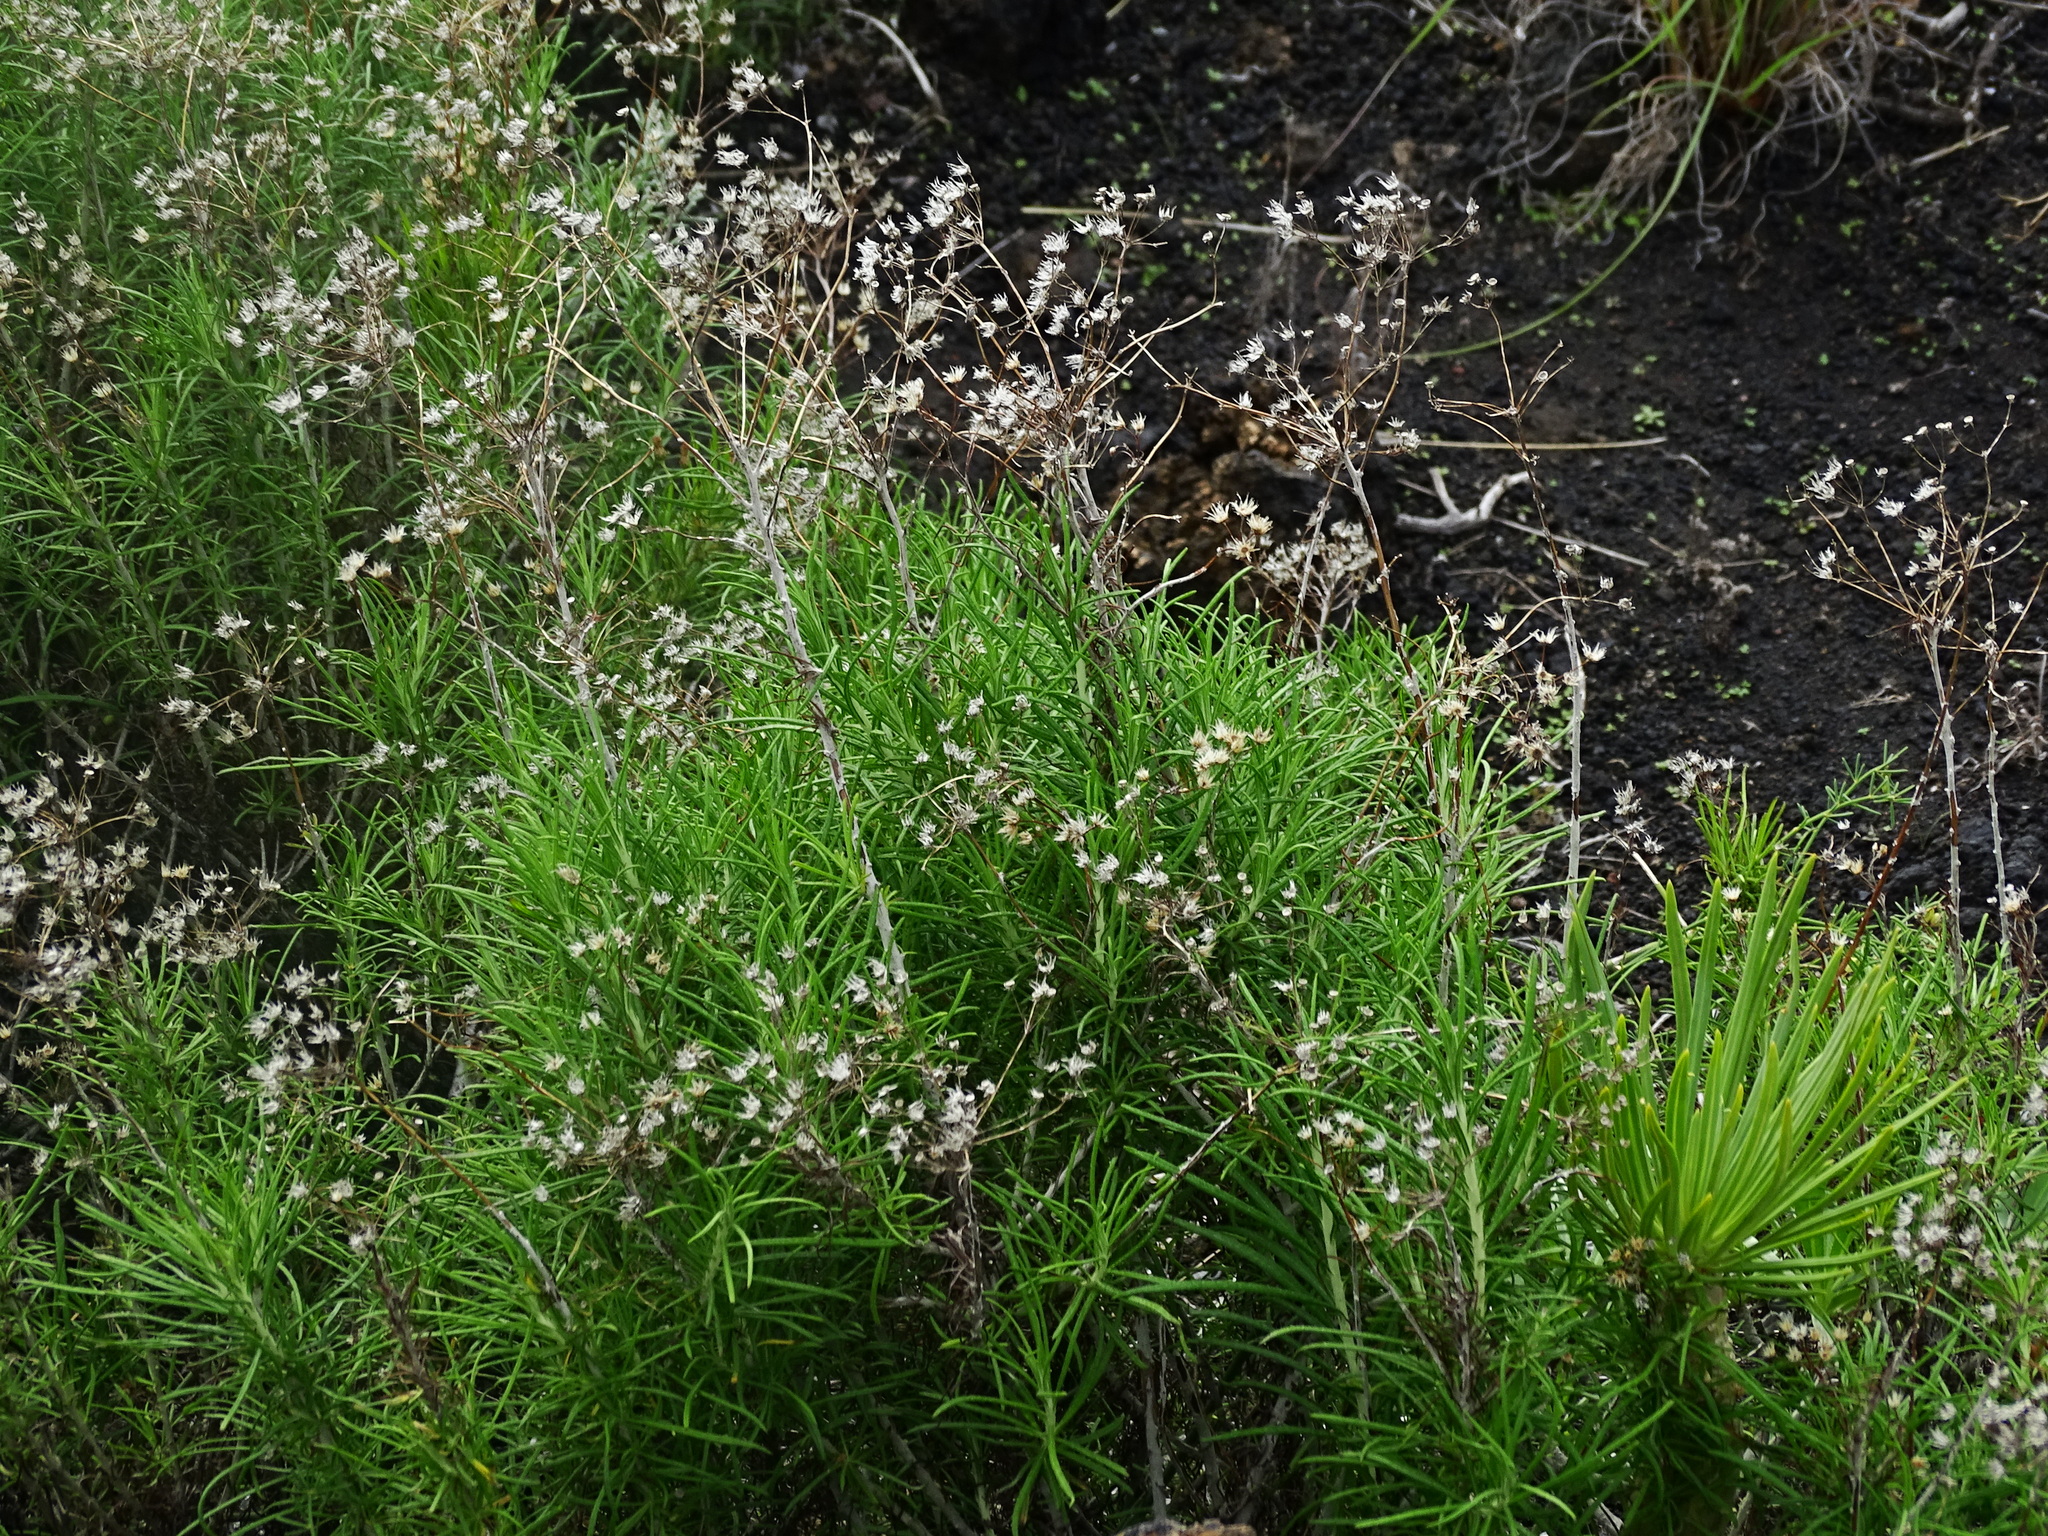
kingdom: Plantae
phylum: Tracheophyta
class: Magnoliopsida
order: Asterales
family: Asteraceae
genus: Phagnalon
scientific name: Phagnalon umbelliforme
